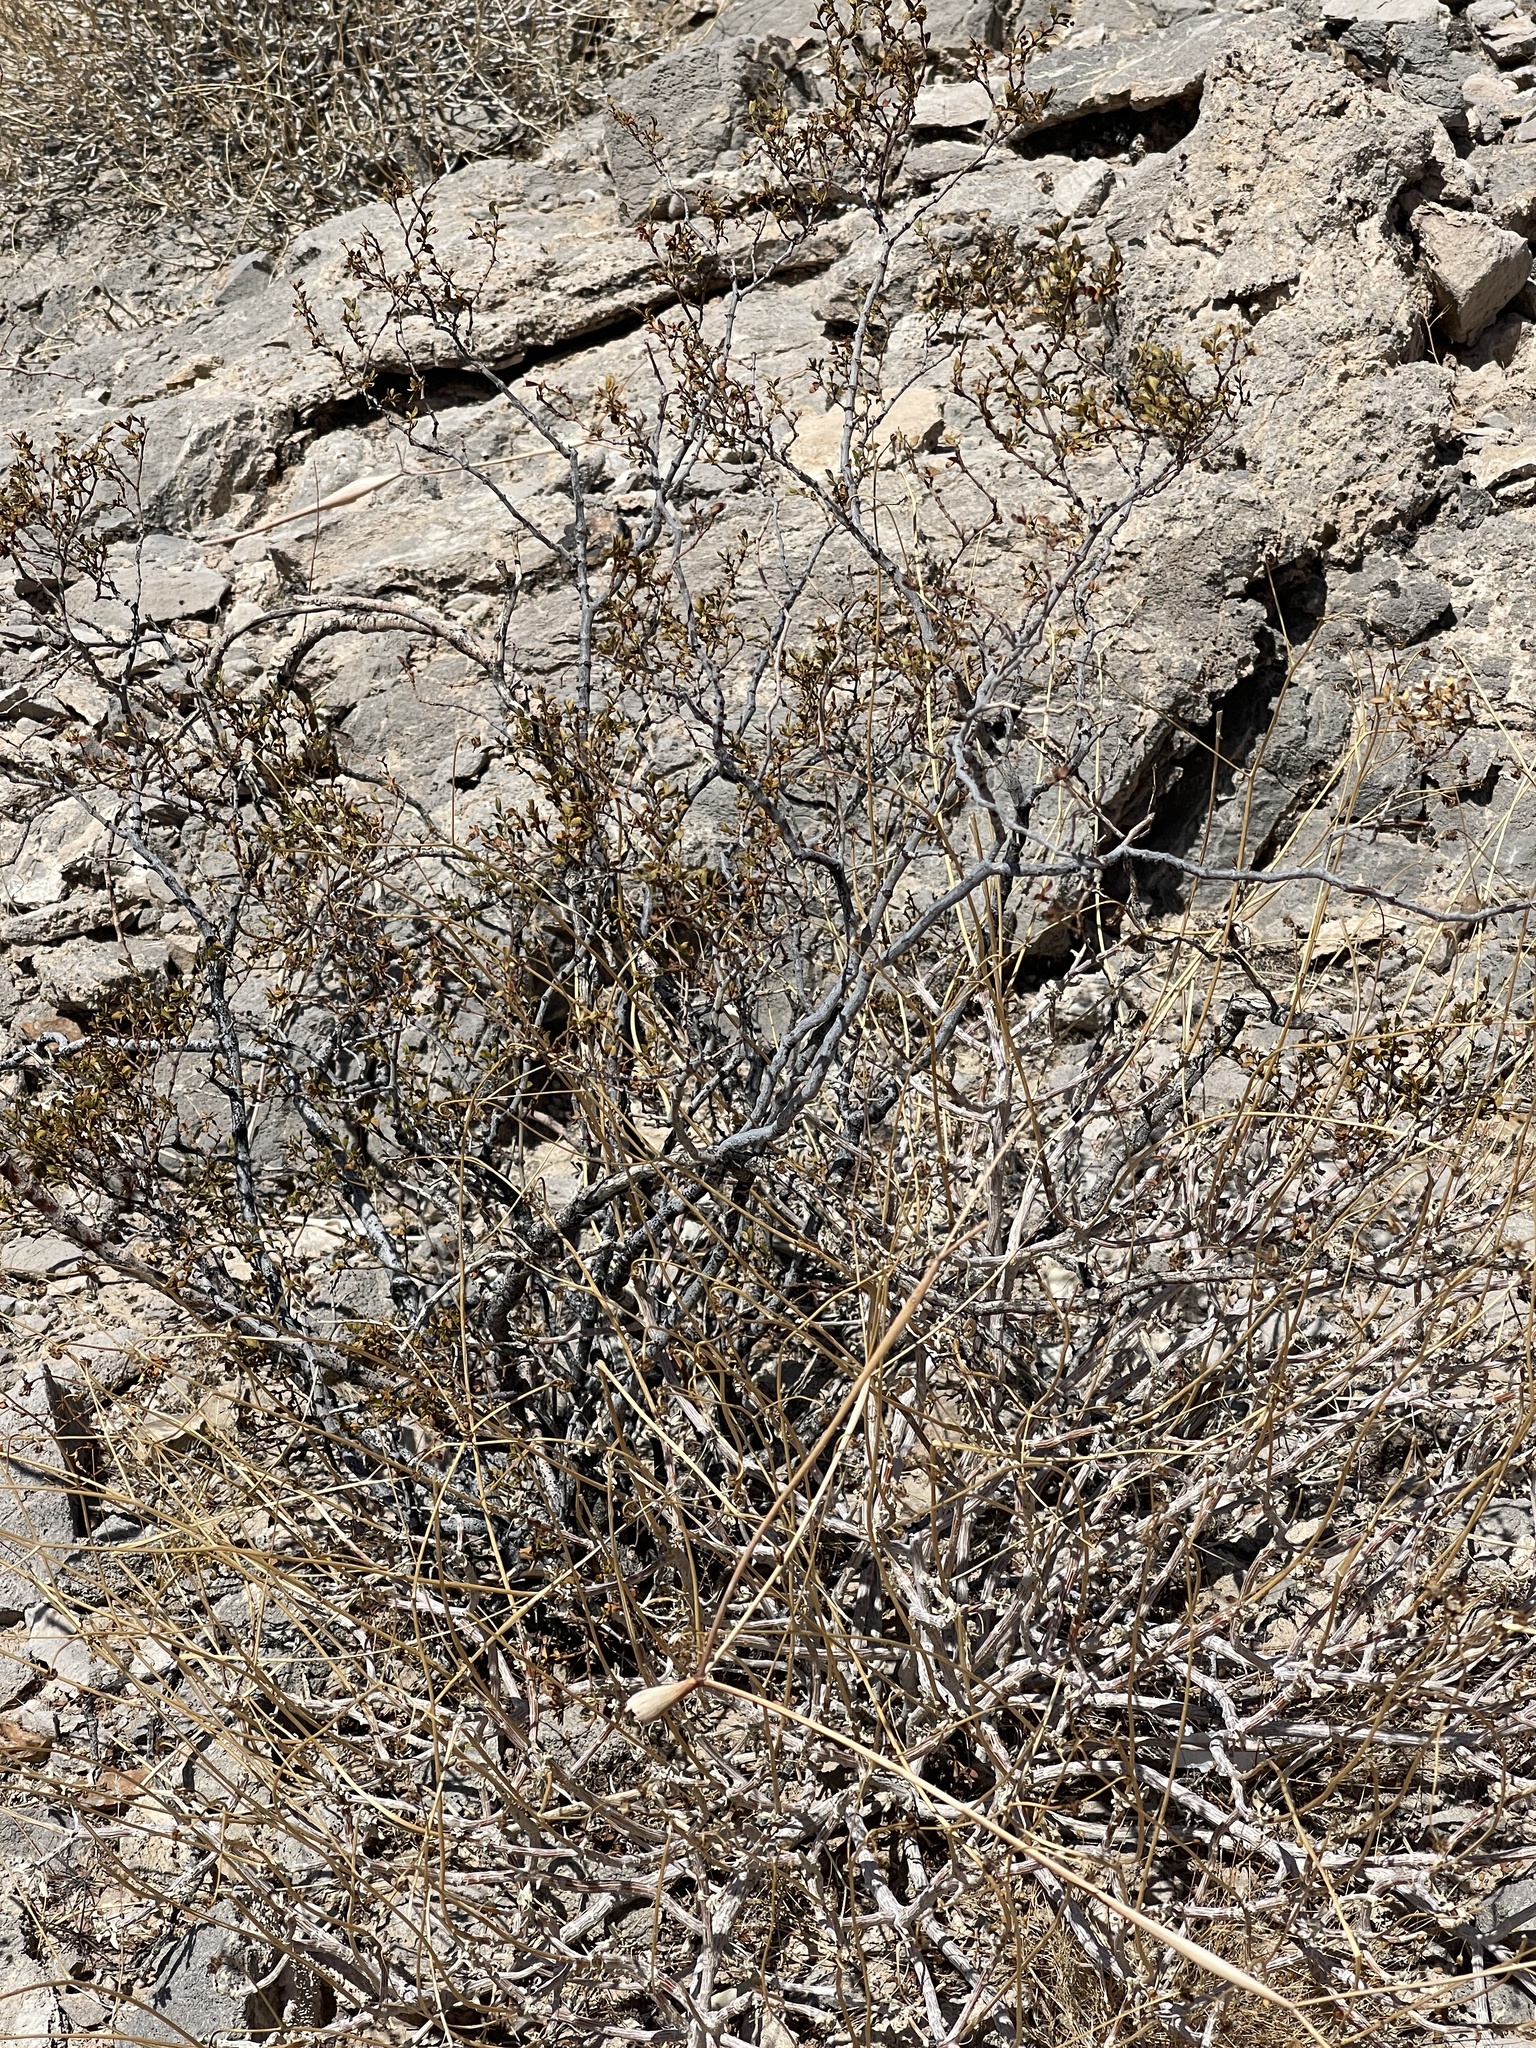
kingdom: Plantae
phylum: Tracheophyta
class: Magnoliopsida
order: Zygophyllales
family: Zygophyllaceae
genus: Larrea
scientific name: Larrea tridentata
